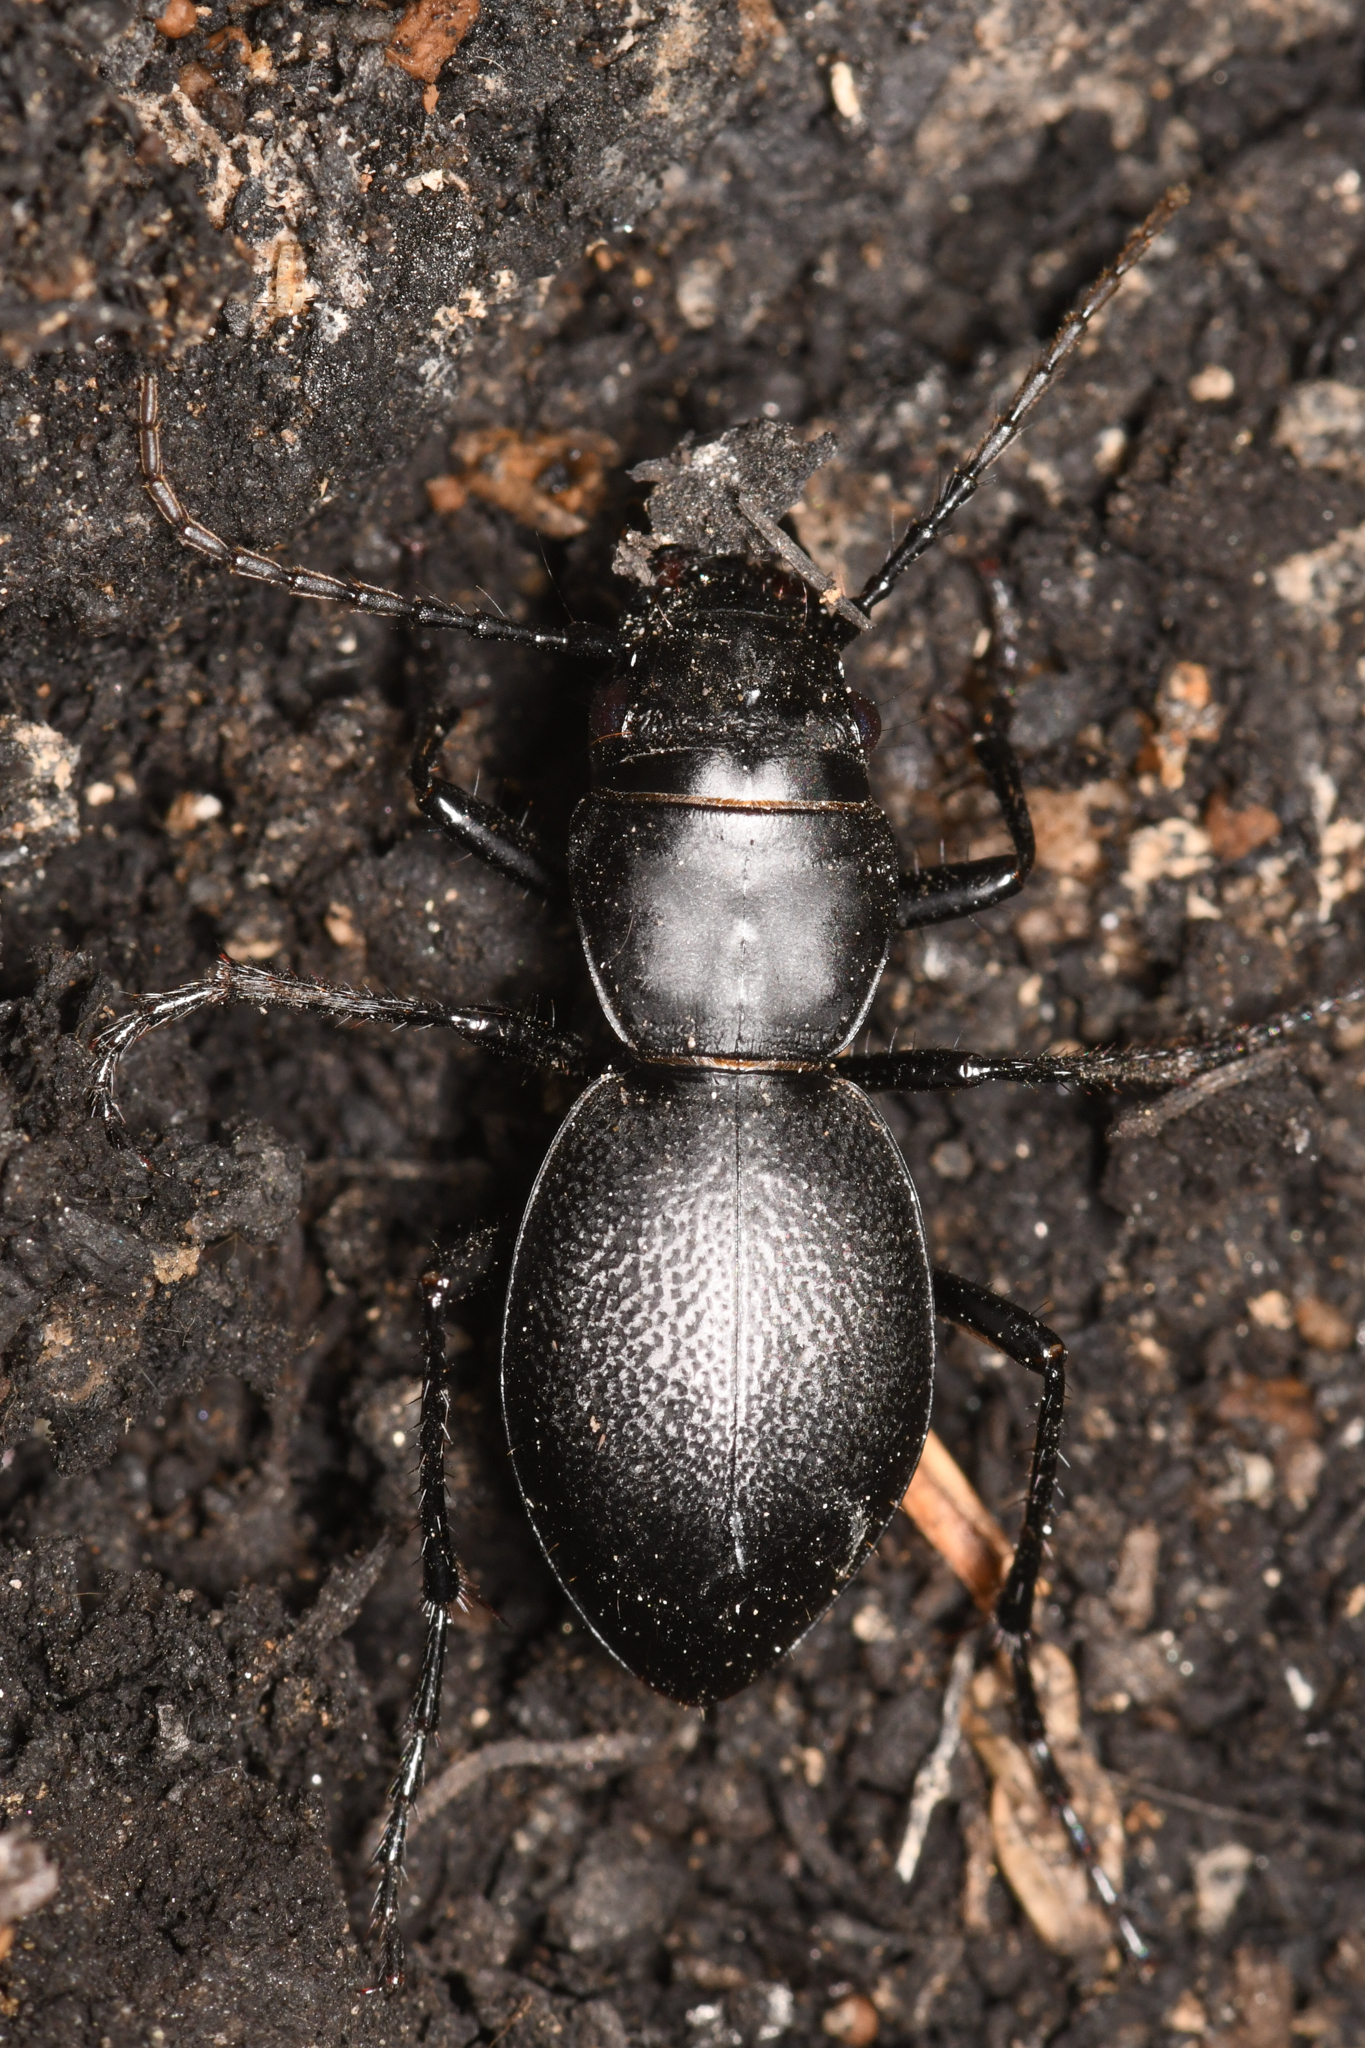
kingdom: Animalia
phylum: Arthropoda
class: Insecta
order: Coleoptera
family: Carabidae
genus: Omus
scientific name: Omus californicus
